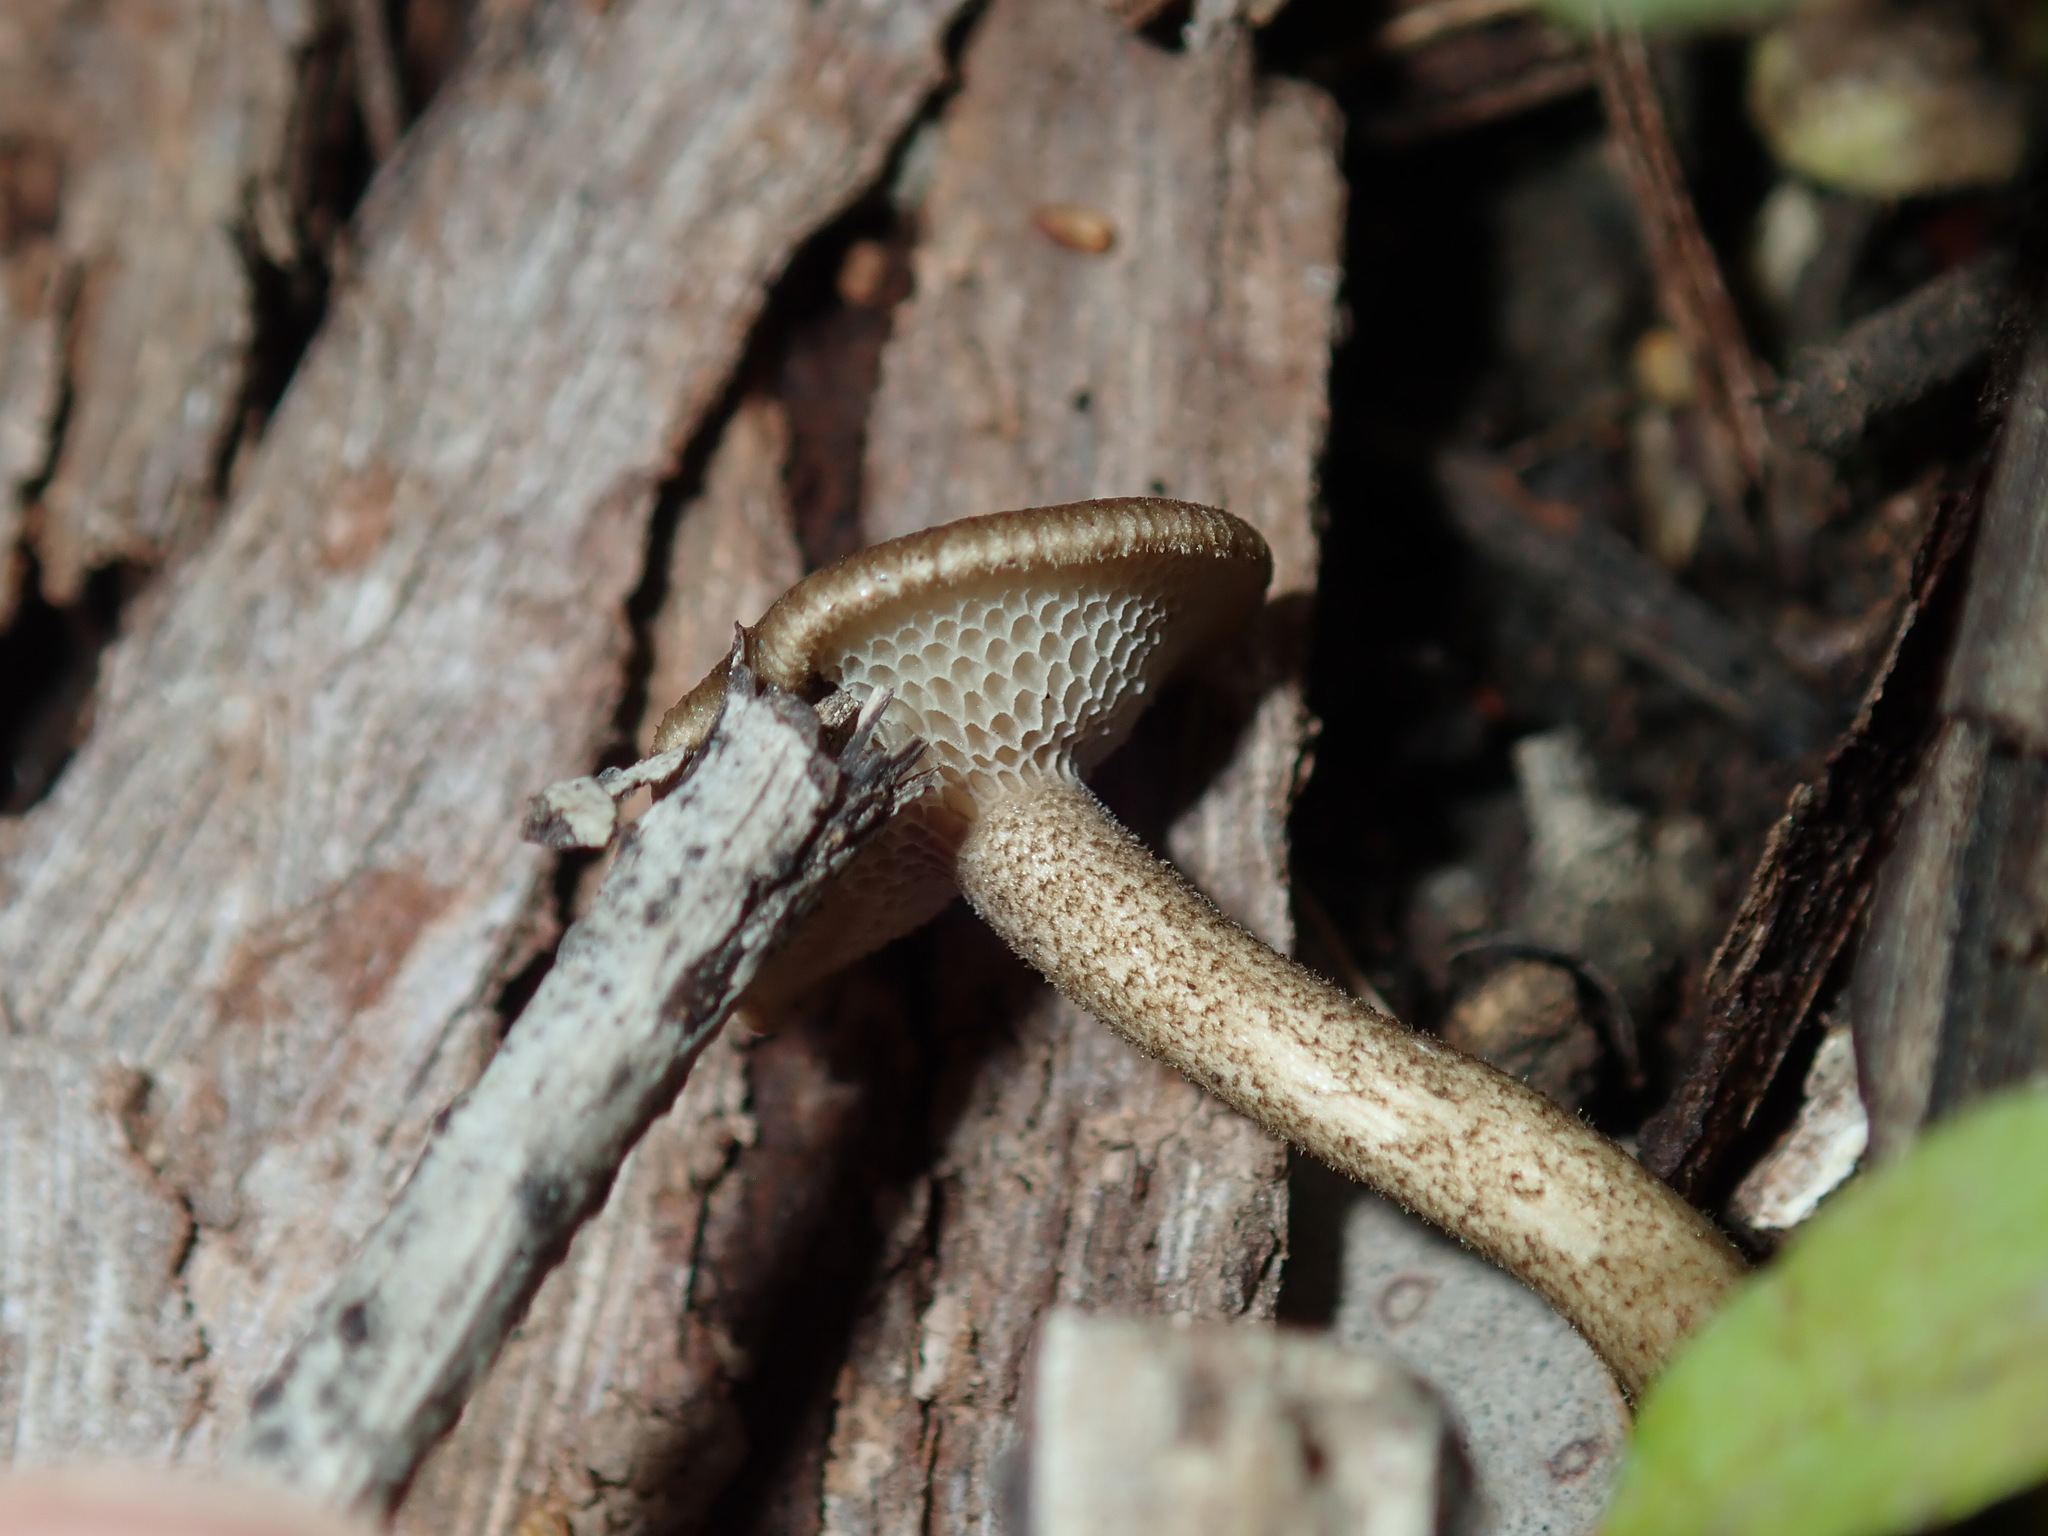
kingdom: Fungi
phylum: Basidiomycota
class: Agaricomycetes
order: Polyporales
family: Polyporaceae
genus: Lentinus
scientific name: Lentinus arcularius
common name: Spring polypore
